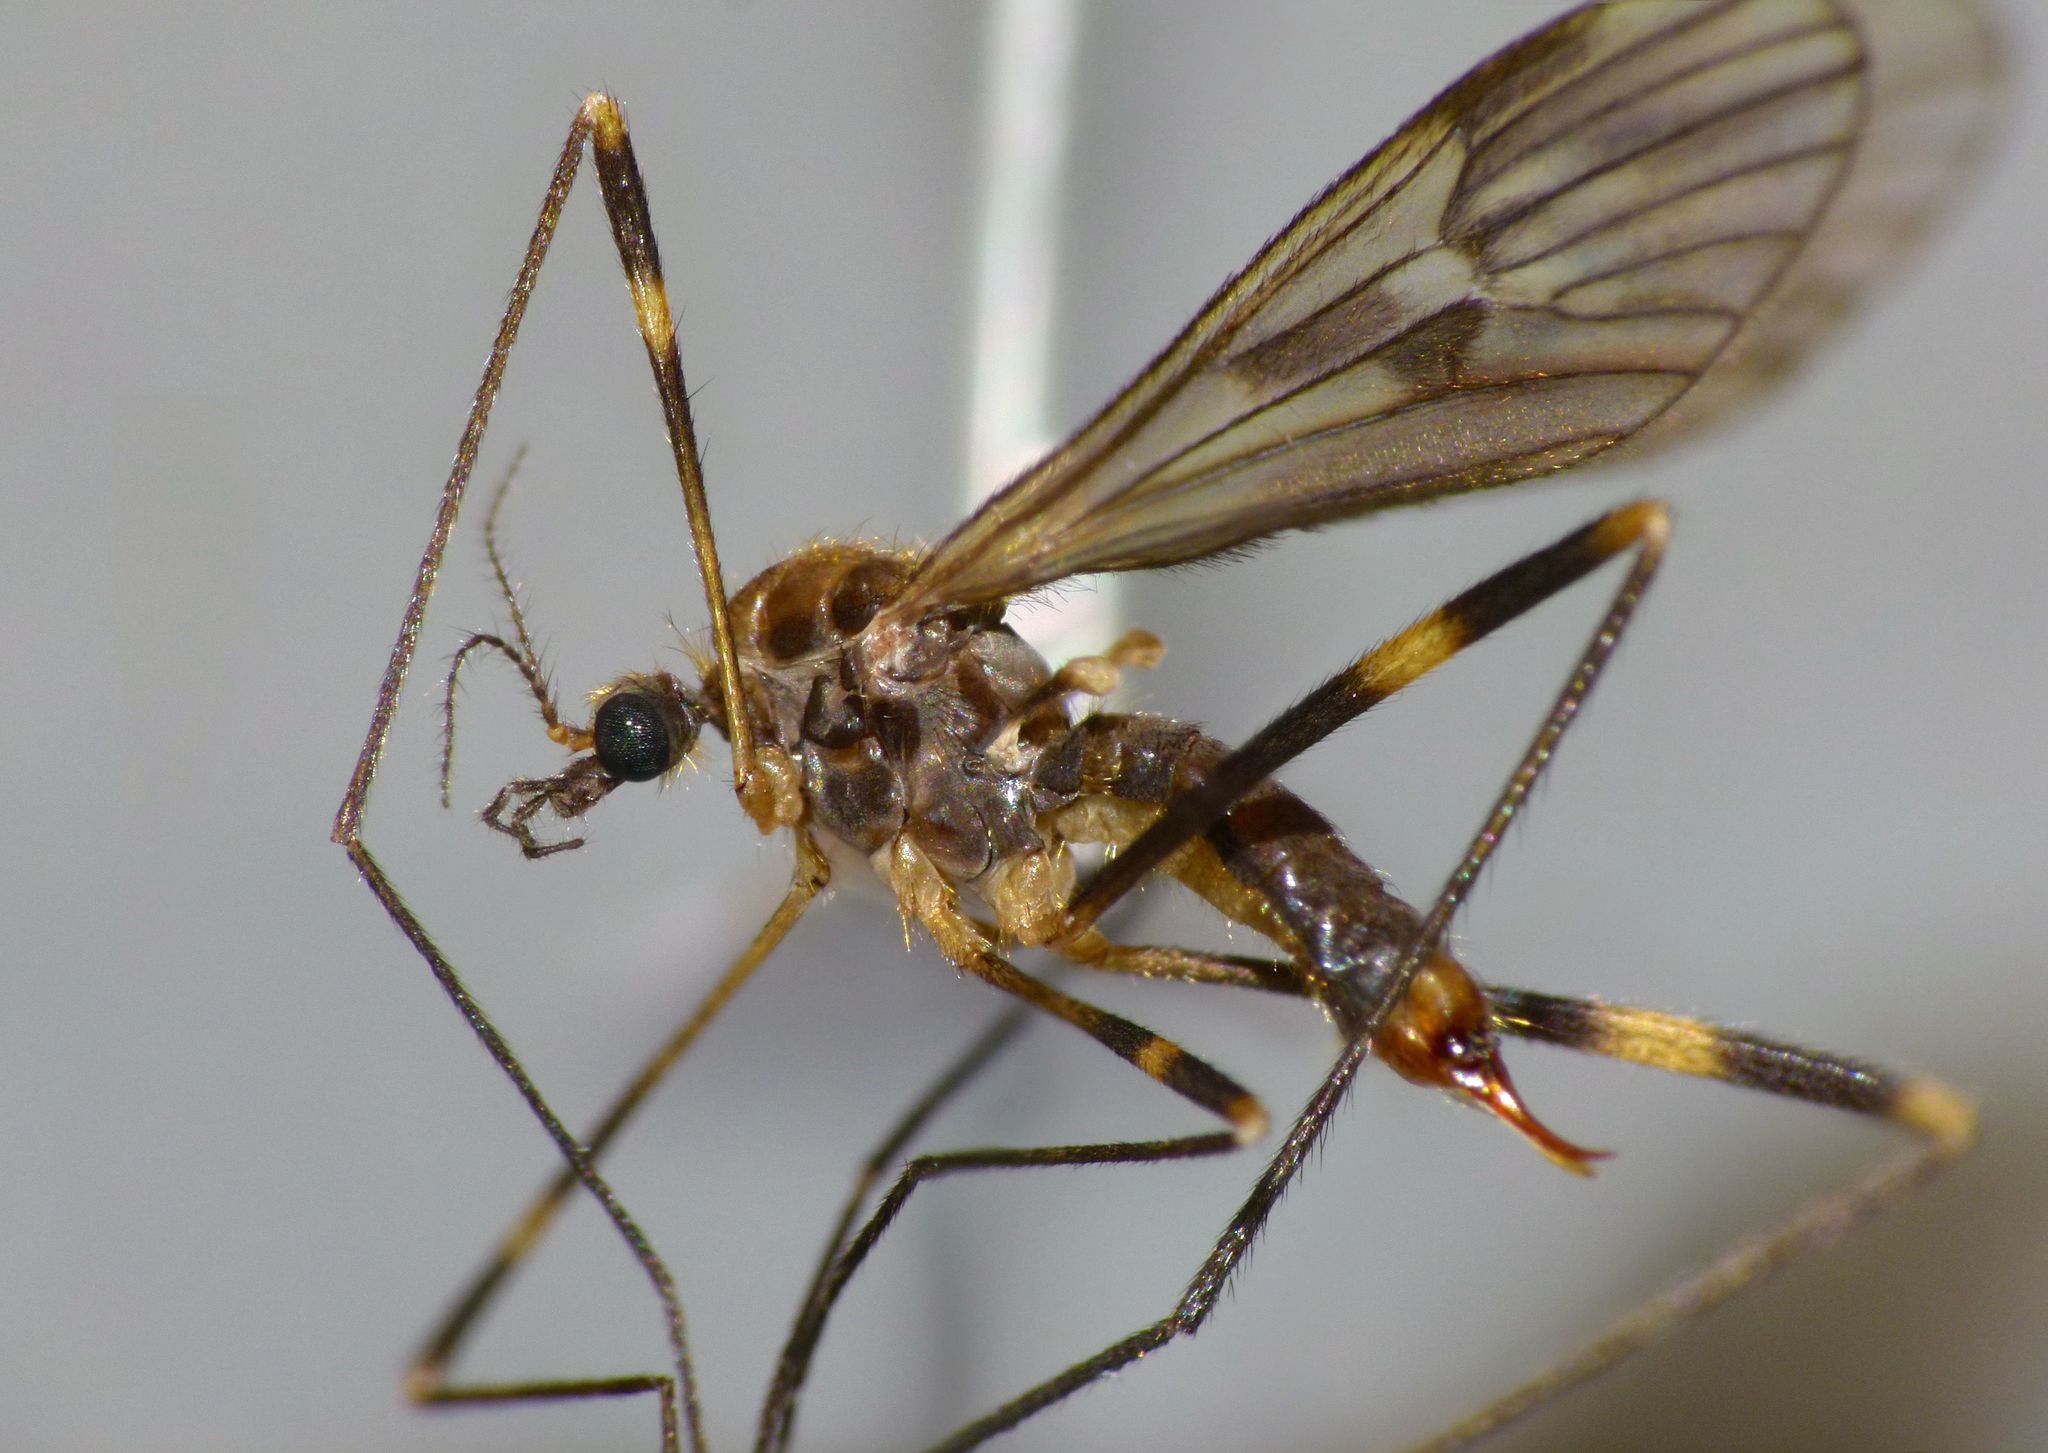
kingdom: Animalia
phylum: Arthropoda
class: Insecta
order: Diptera
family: Limoniidae
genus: Amphineurus
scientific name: Amphineurus fatuus
